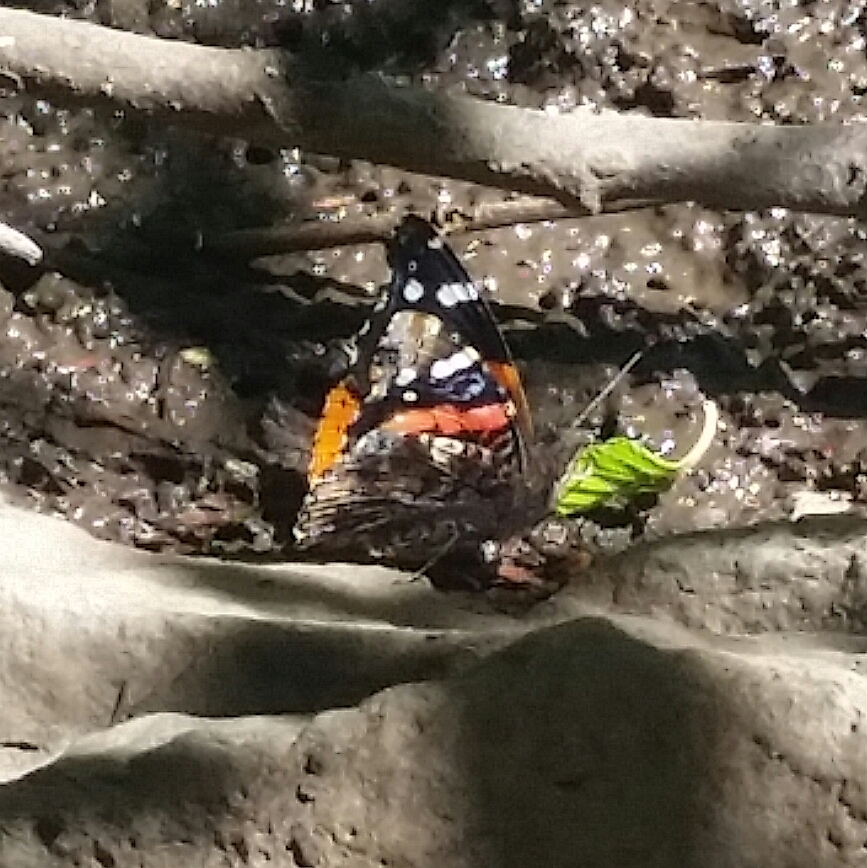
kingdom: Animalia
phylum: Arthropoda
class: Insecta
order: Lepidoptera
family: Nymphalidae
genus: Vanessa
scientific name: Vanessa atalanta
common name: Red admiral
